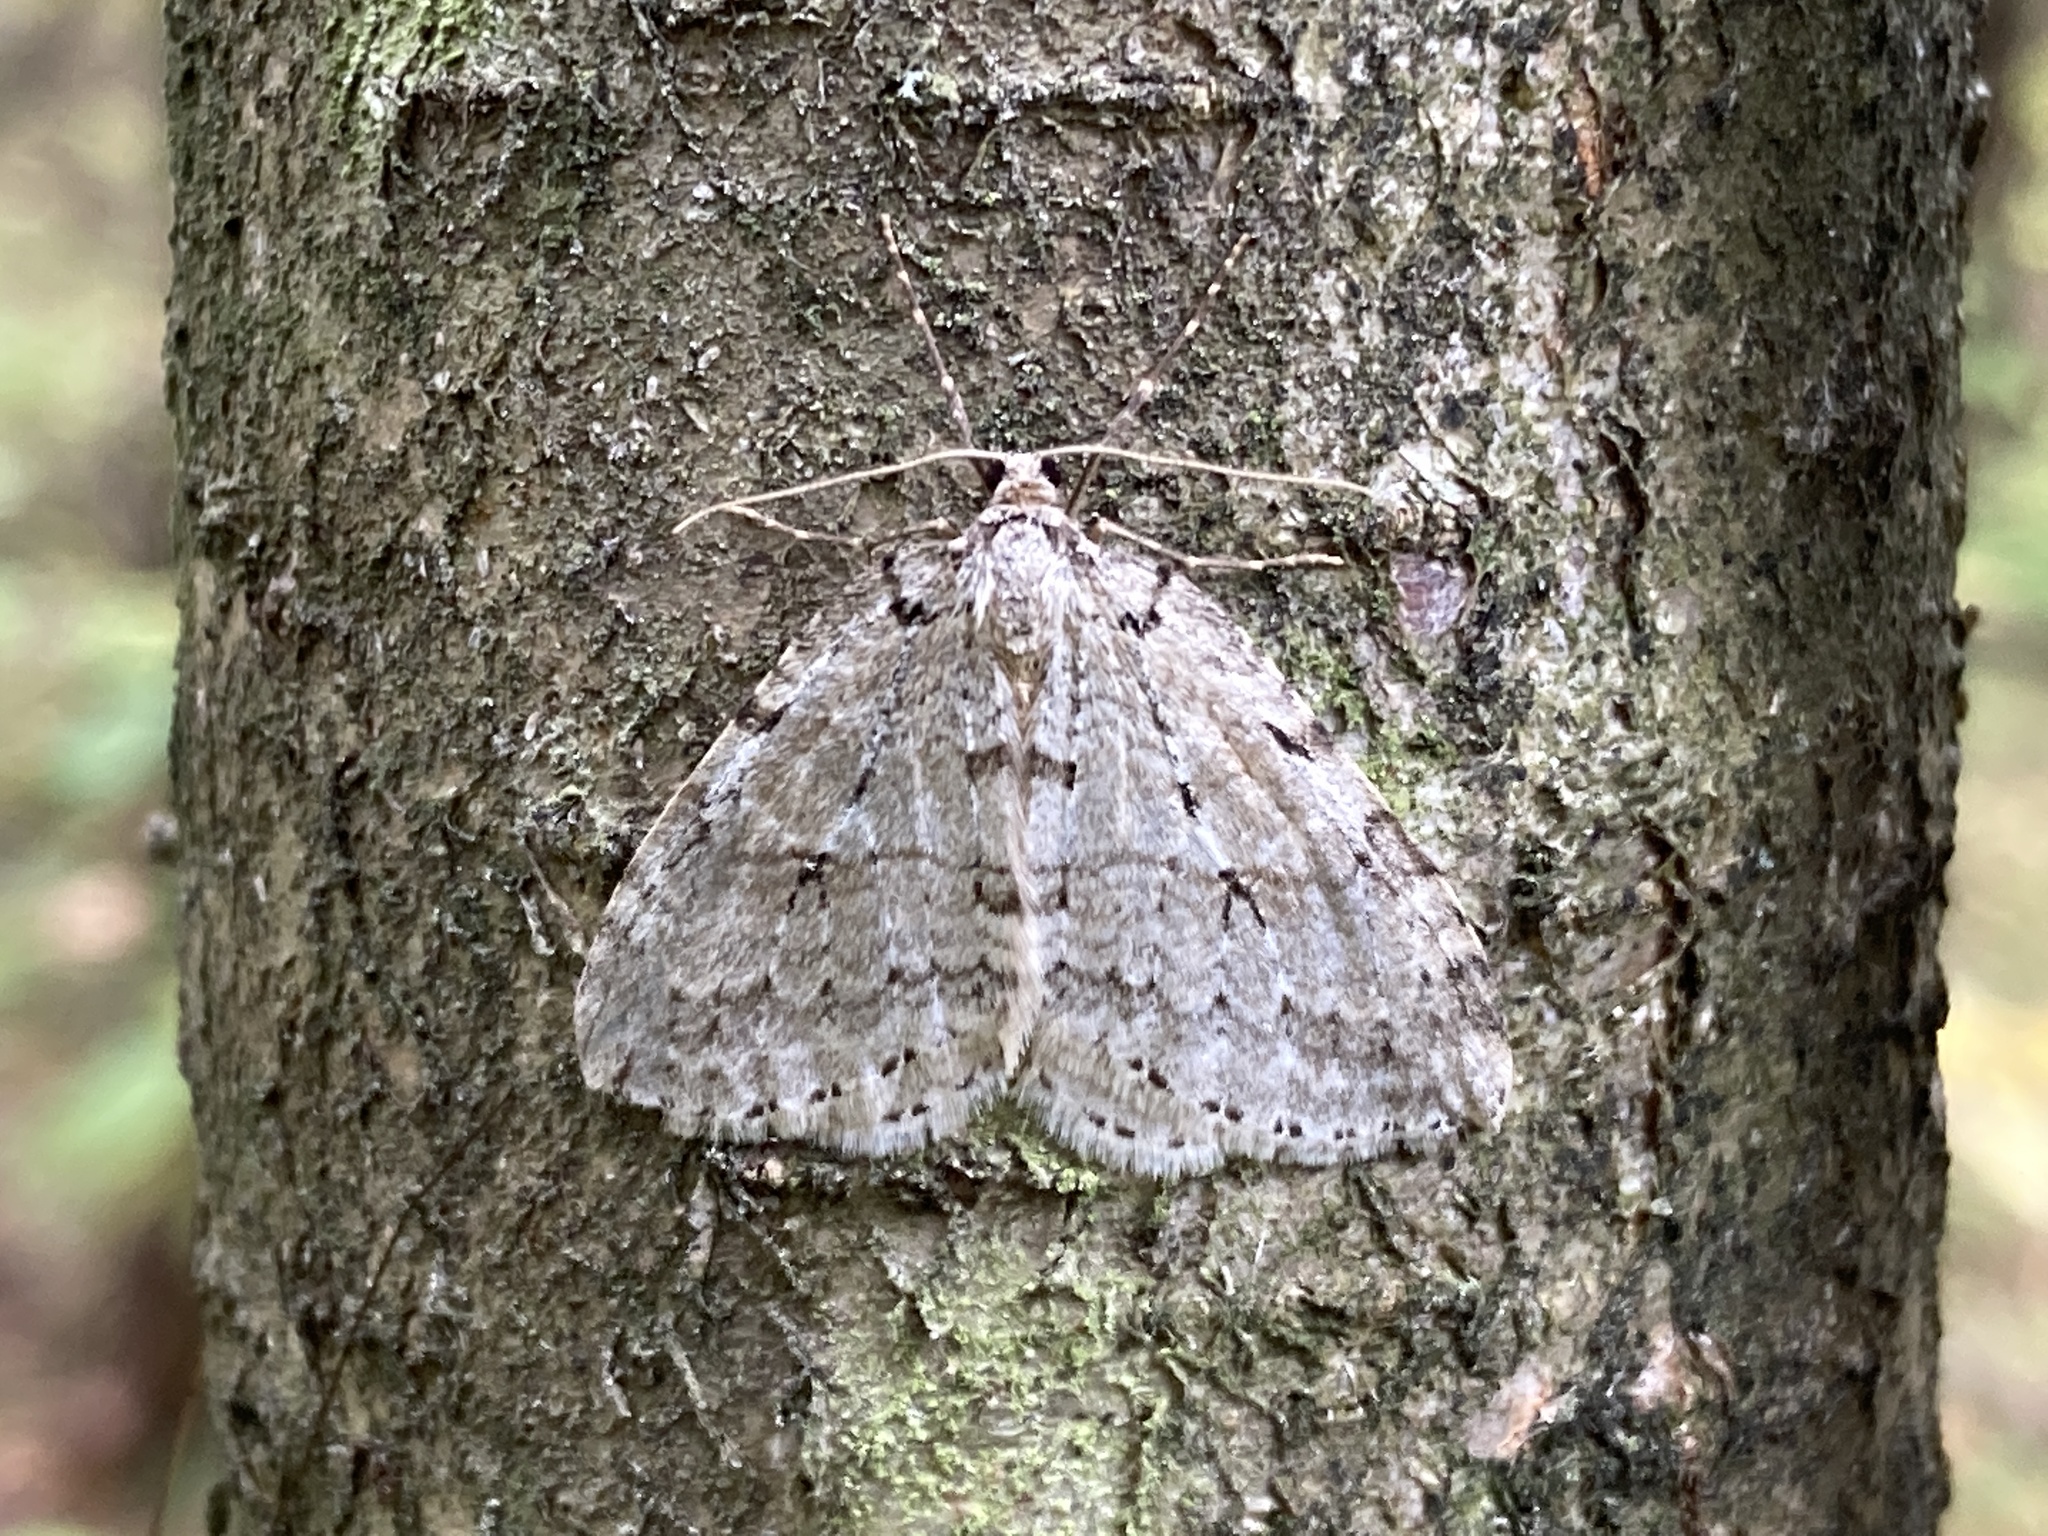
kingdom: Animalia
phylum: Arthropoda
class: Insecta
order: Lepidoptera
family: Geometridae
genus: Epirrita
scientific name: Epirrita autumnata
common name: Autumnal moth
